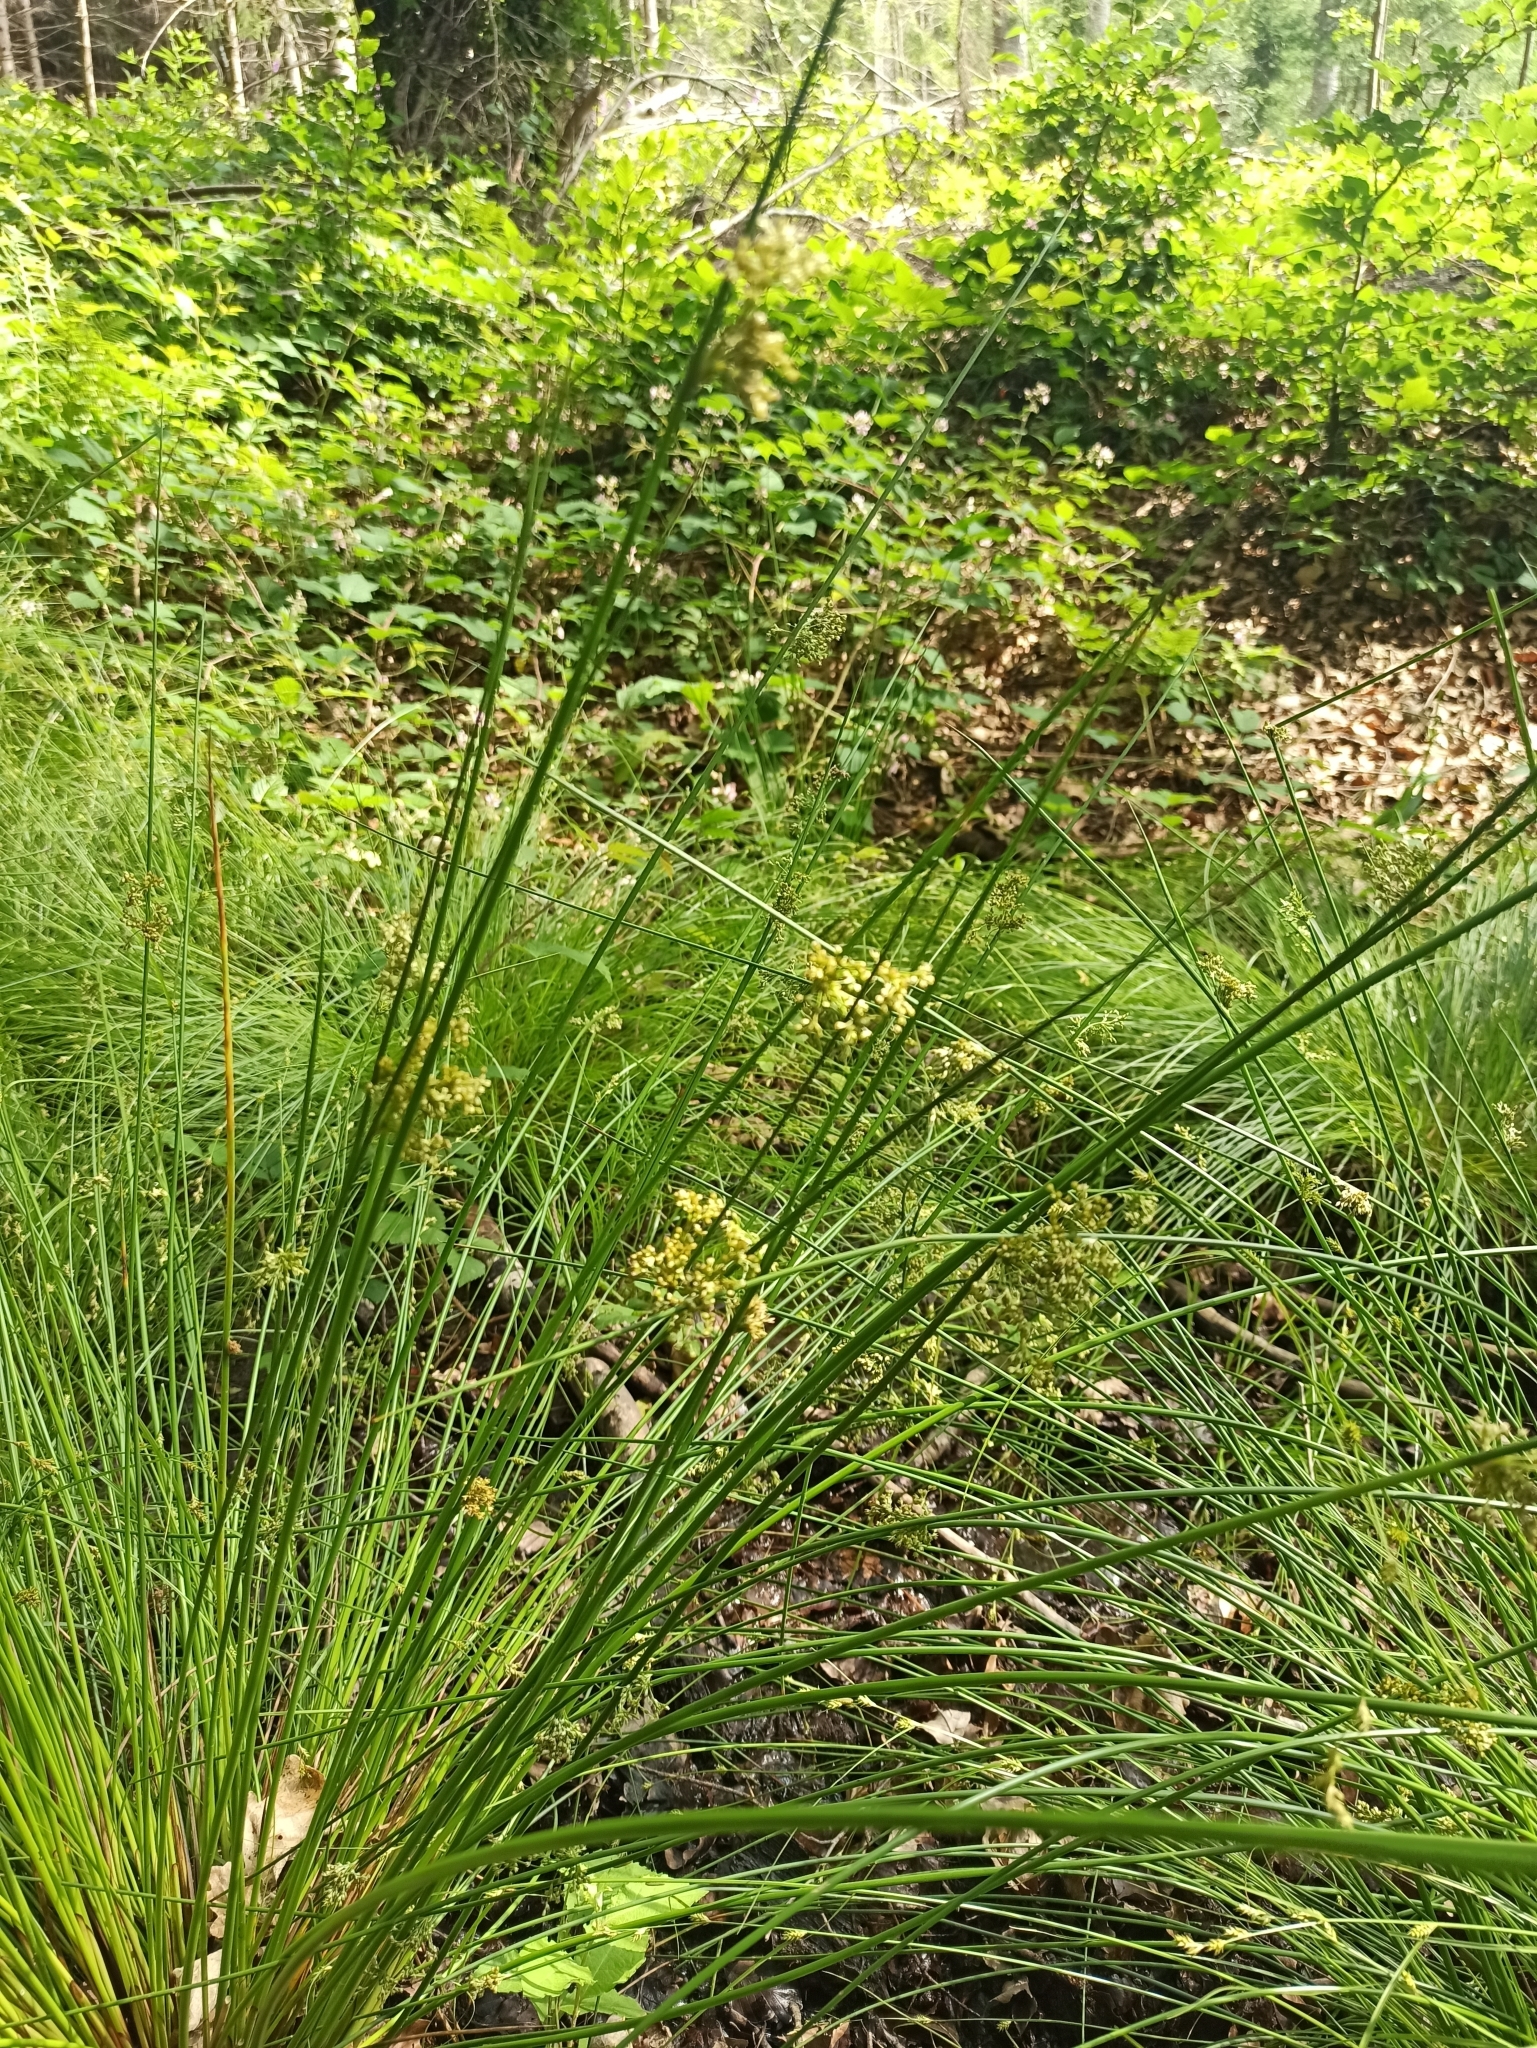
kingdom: Plantae
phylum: Tracheophyta
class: Liliopsida
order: Poales
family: Juncaceae
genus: Juncus
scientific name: Juncus effusus
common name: Soft rush
